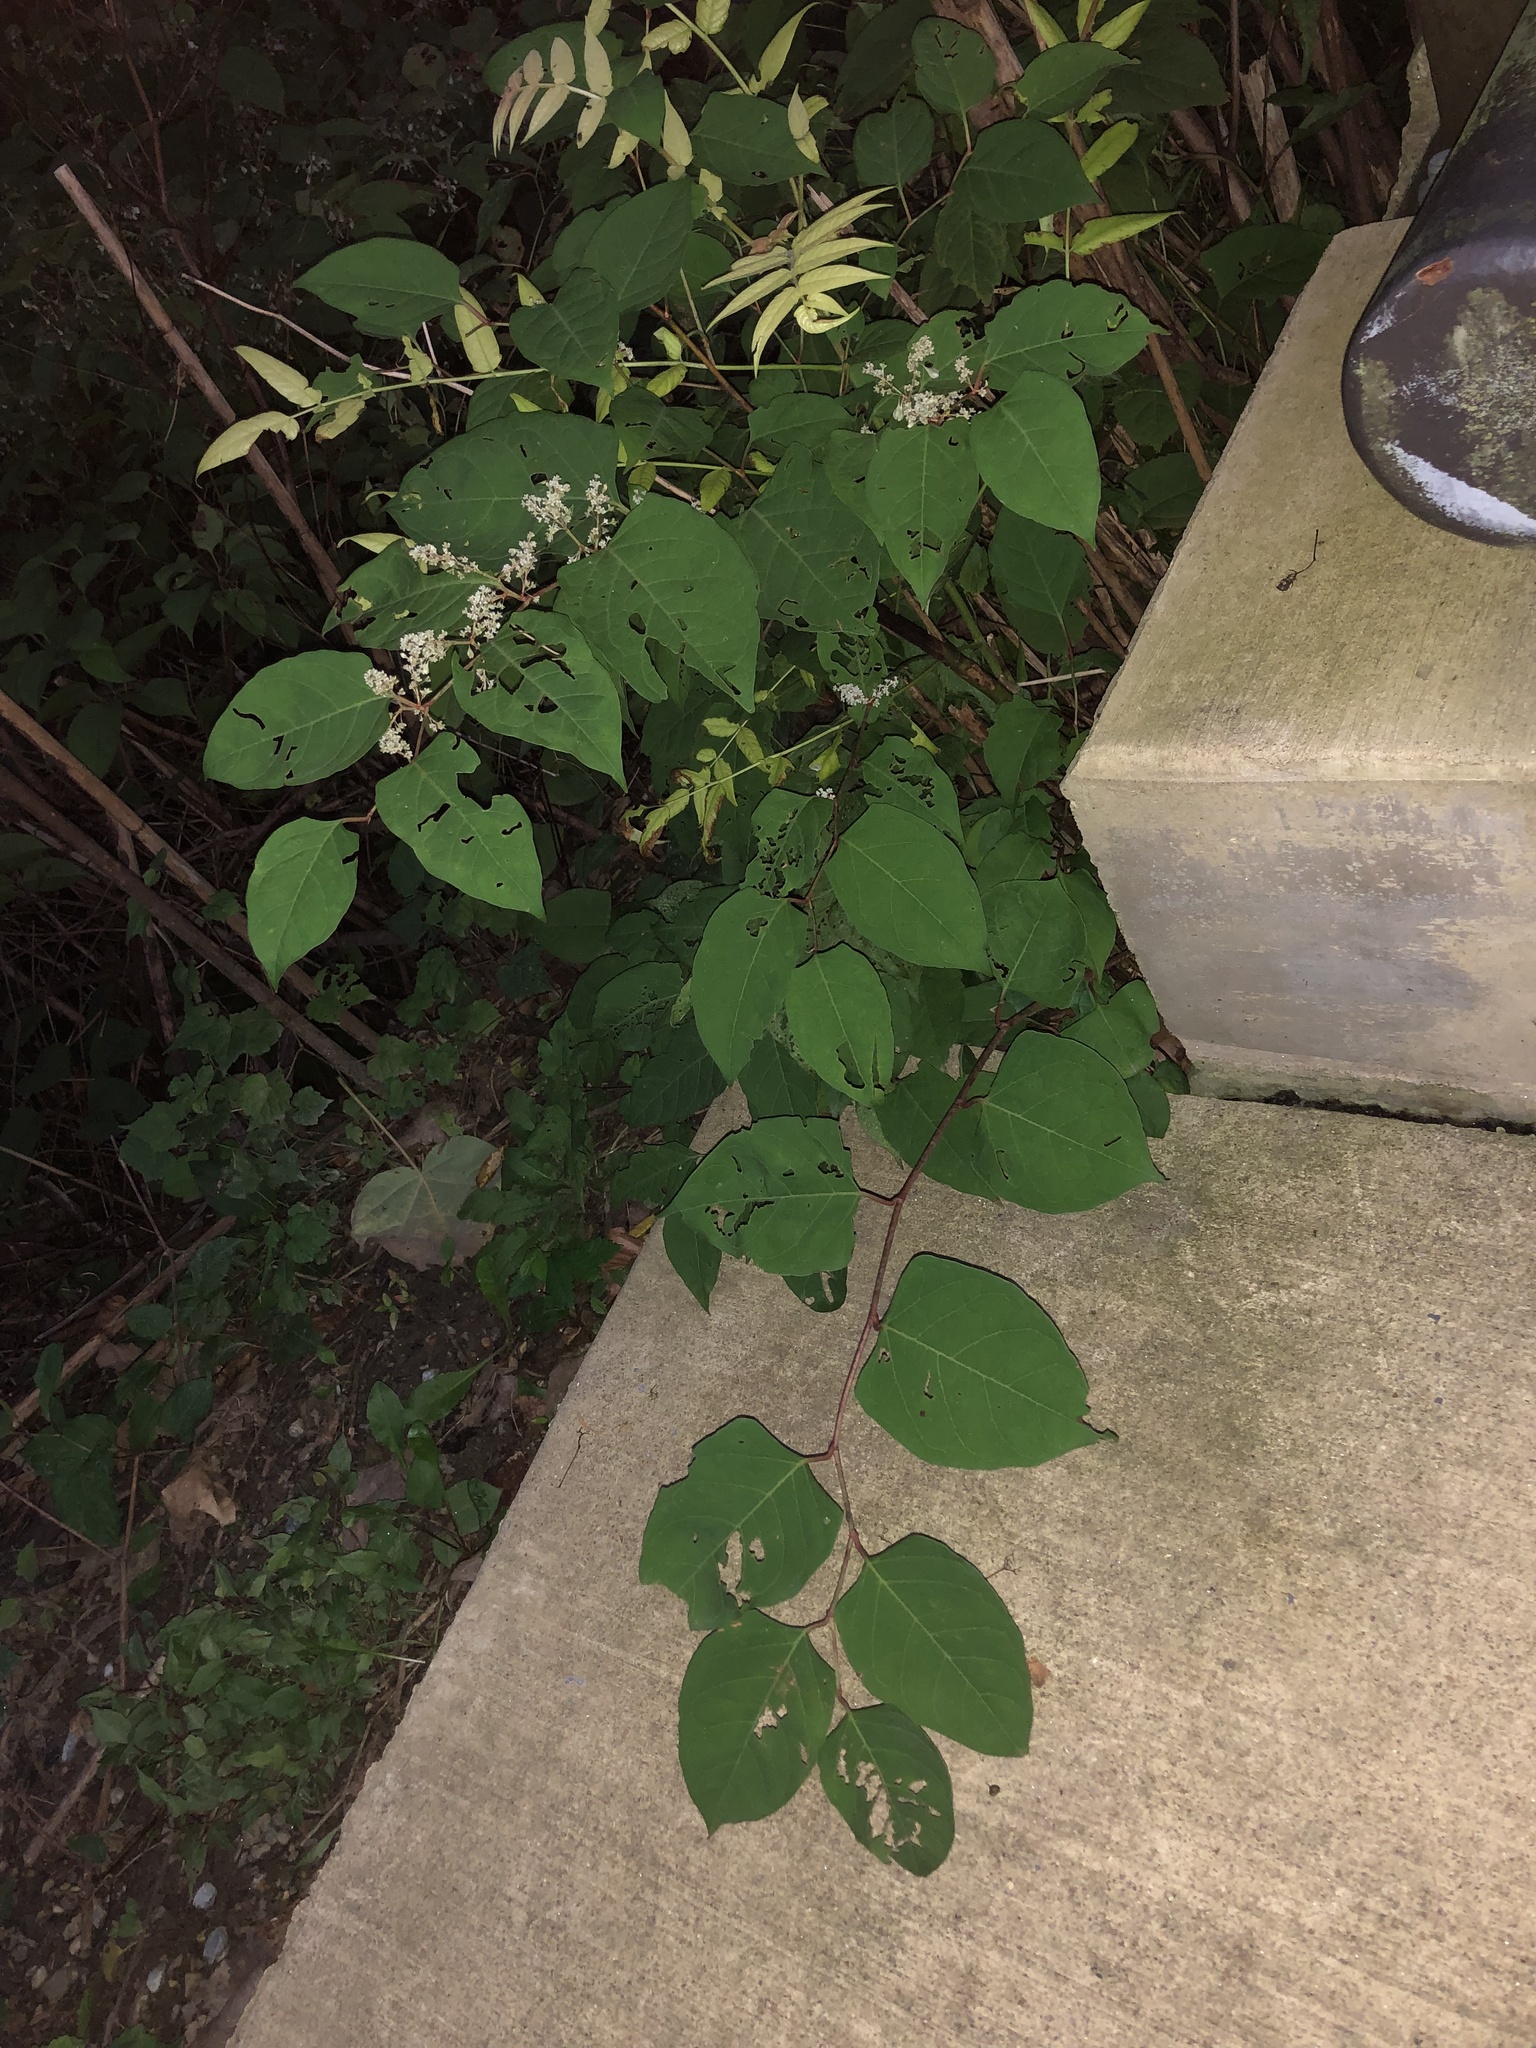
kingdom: Plantae
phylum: Tracheophyta
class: Magnoliopsida
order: Caryophyllales
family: Polygonaceae
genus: Reynoutria
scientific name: Reynoutria japonica
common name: Japanese knotweed
